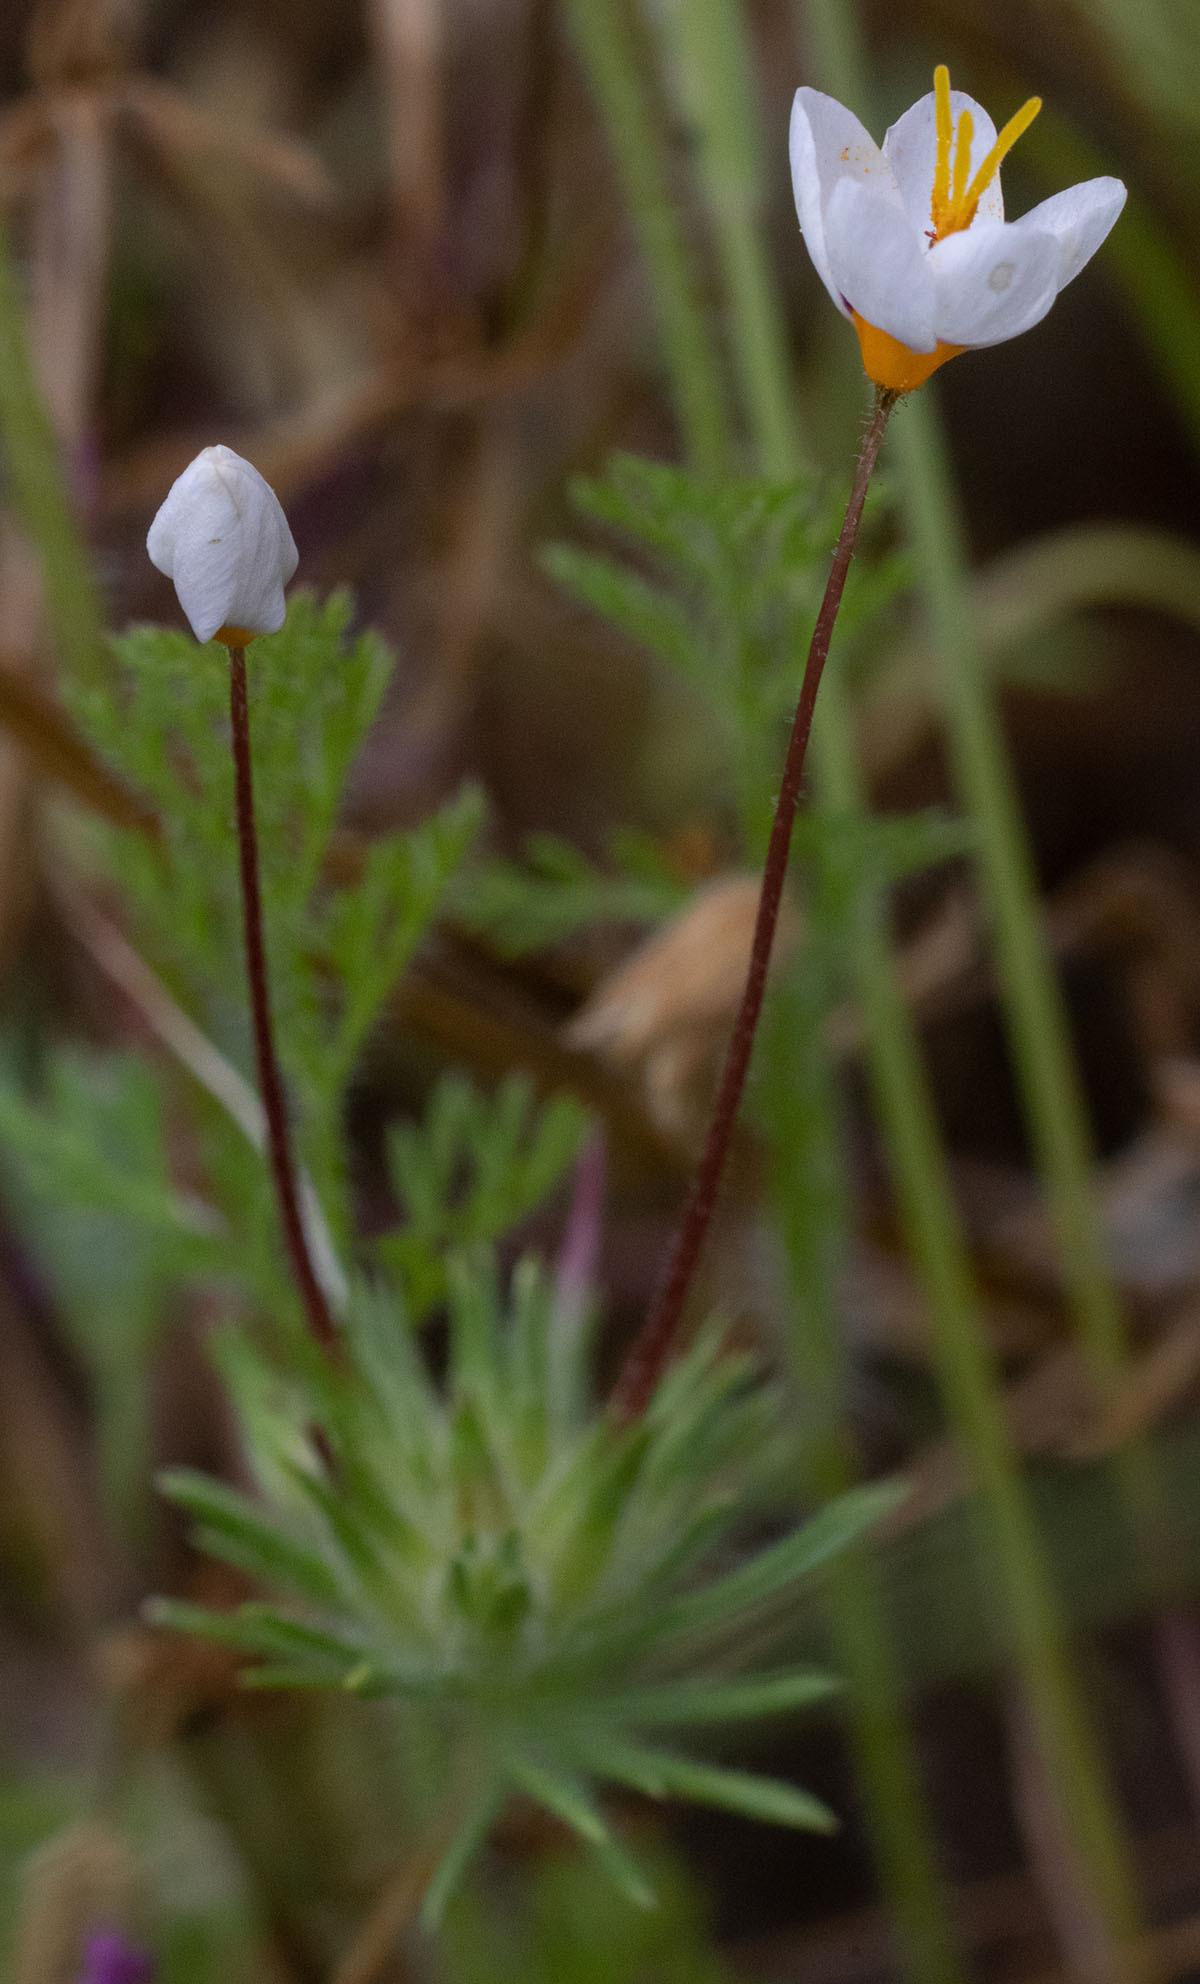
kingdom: Plantae
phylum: Tracheophyta
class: Magnoliopsida
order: Ericales
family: Polemoniaceae
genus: Leptosiphon
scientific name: Leptosiphon parviflorus
